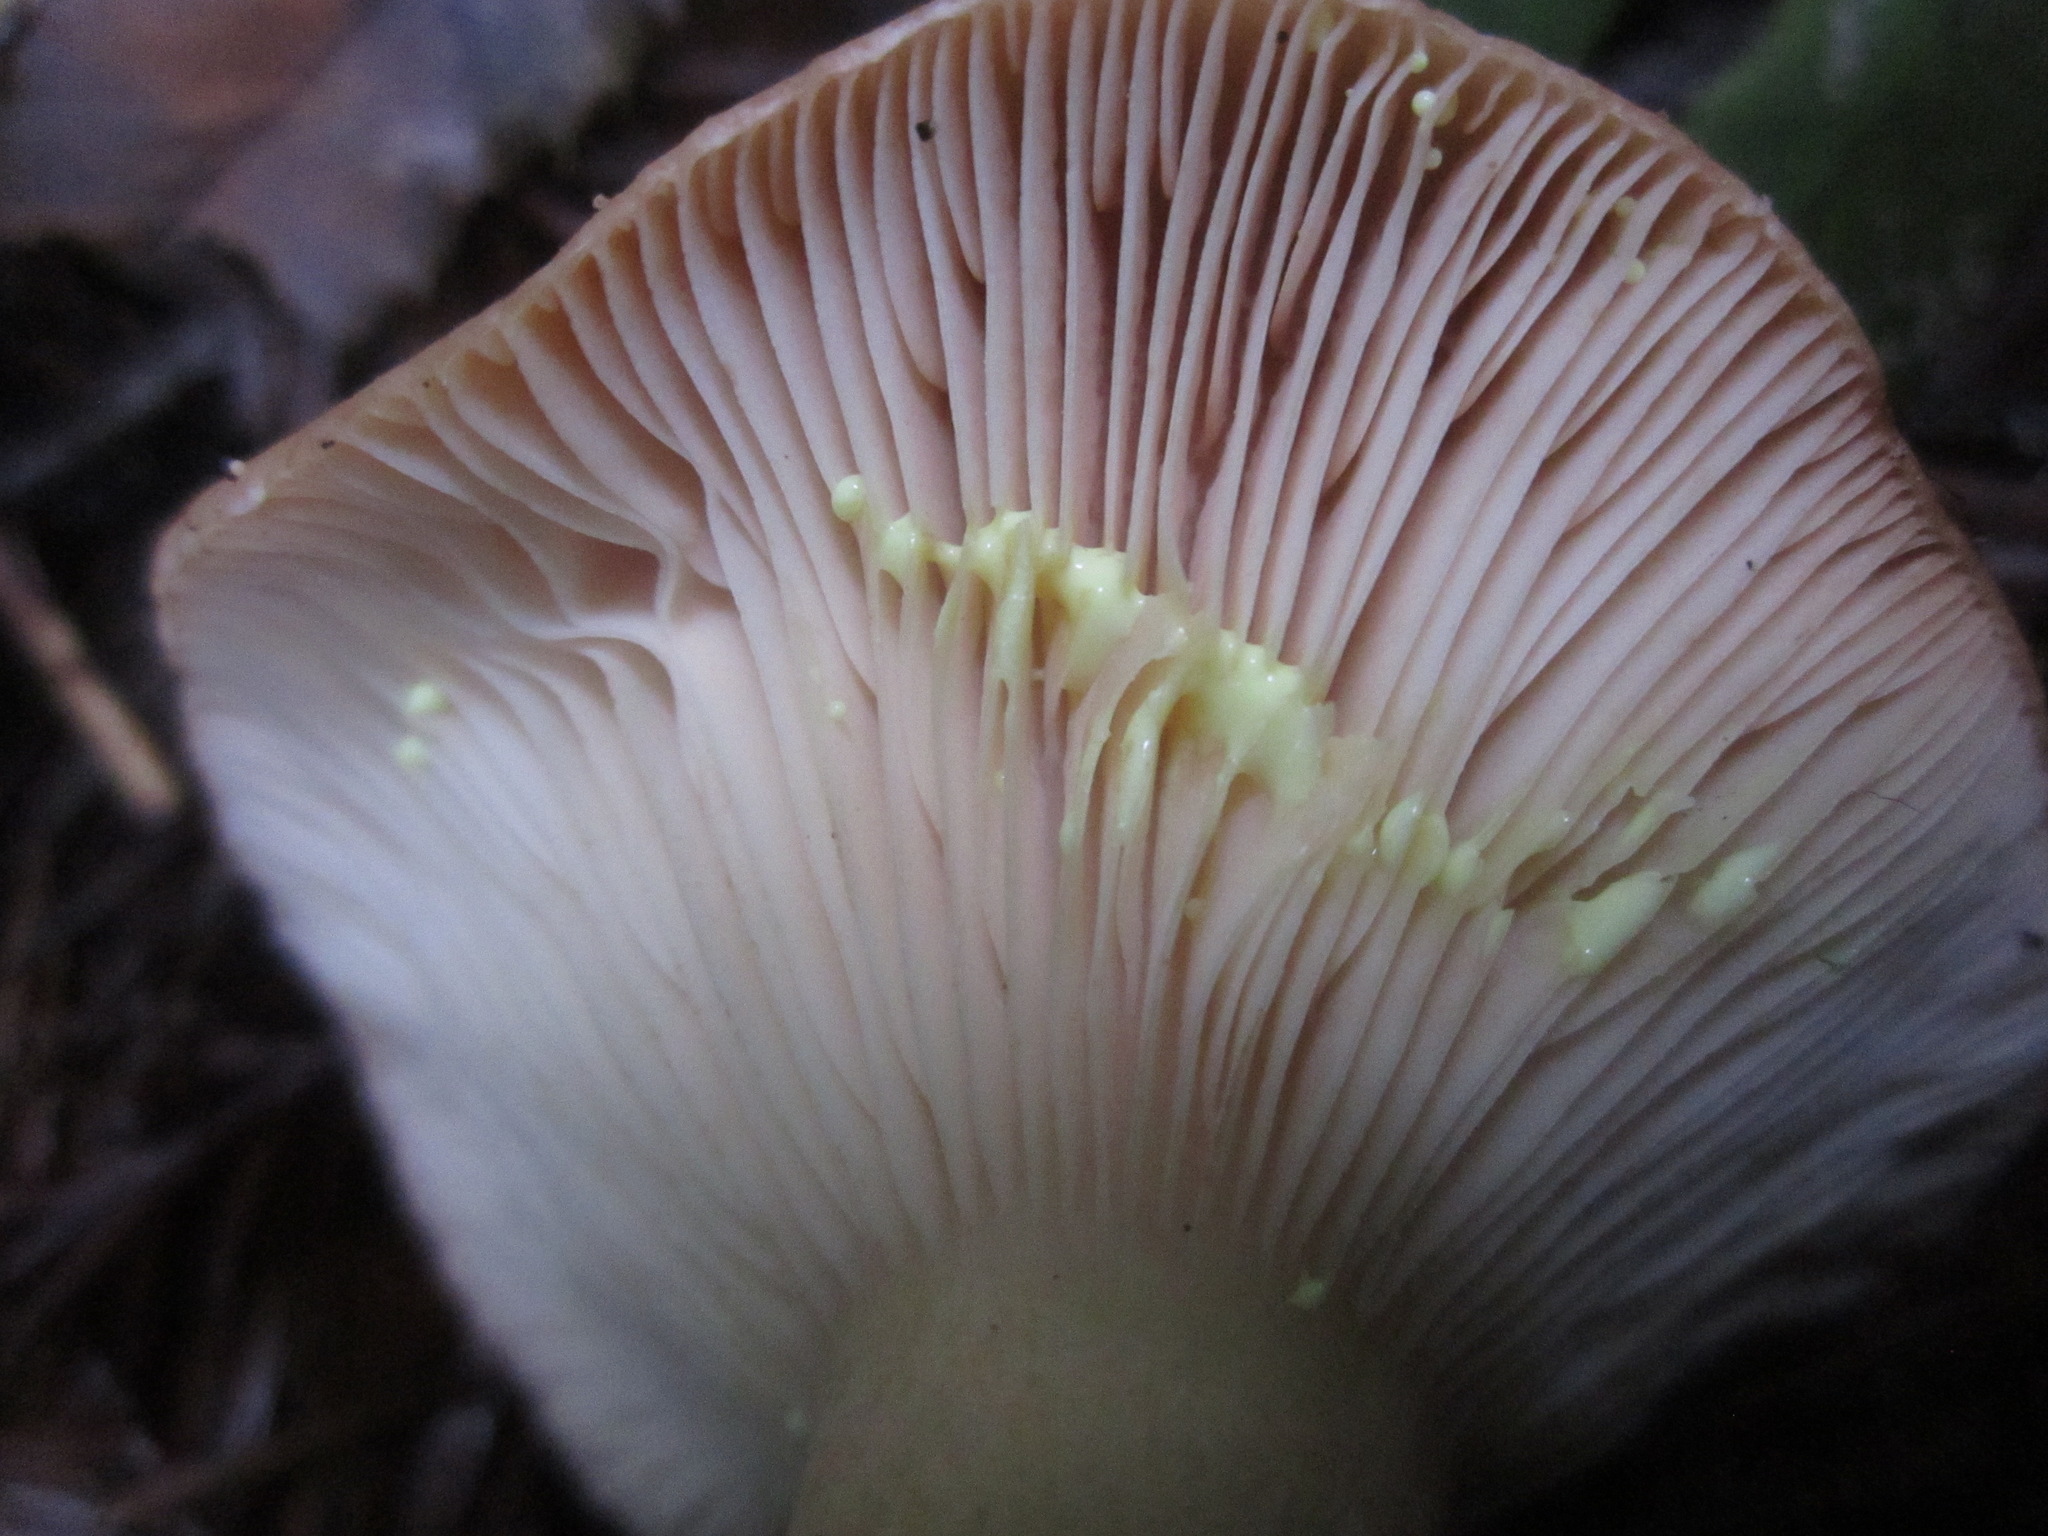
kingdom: Fungi
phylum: Basidiomycota
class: Agaricomycetes
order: Russulales
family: Russulaceae
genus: Lactarius
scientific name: Lactarius xanthogalactus
